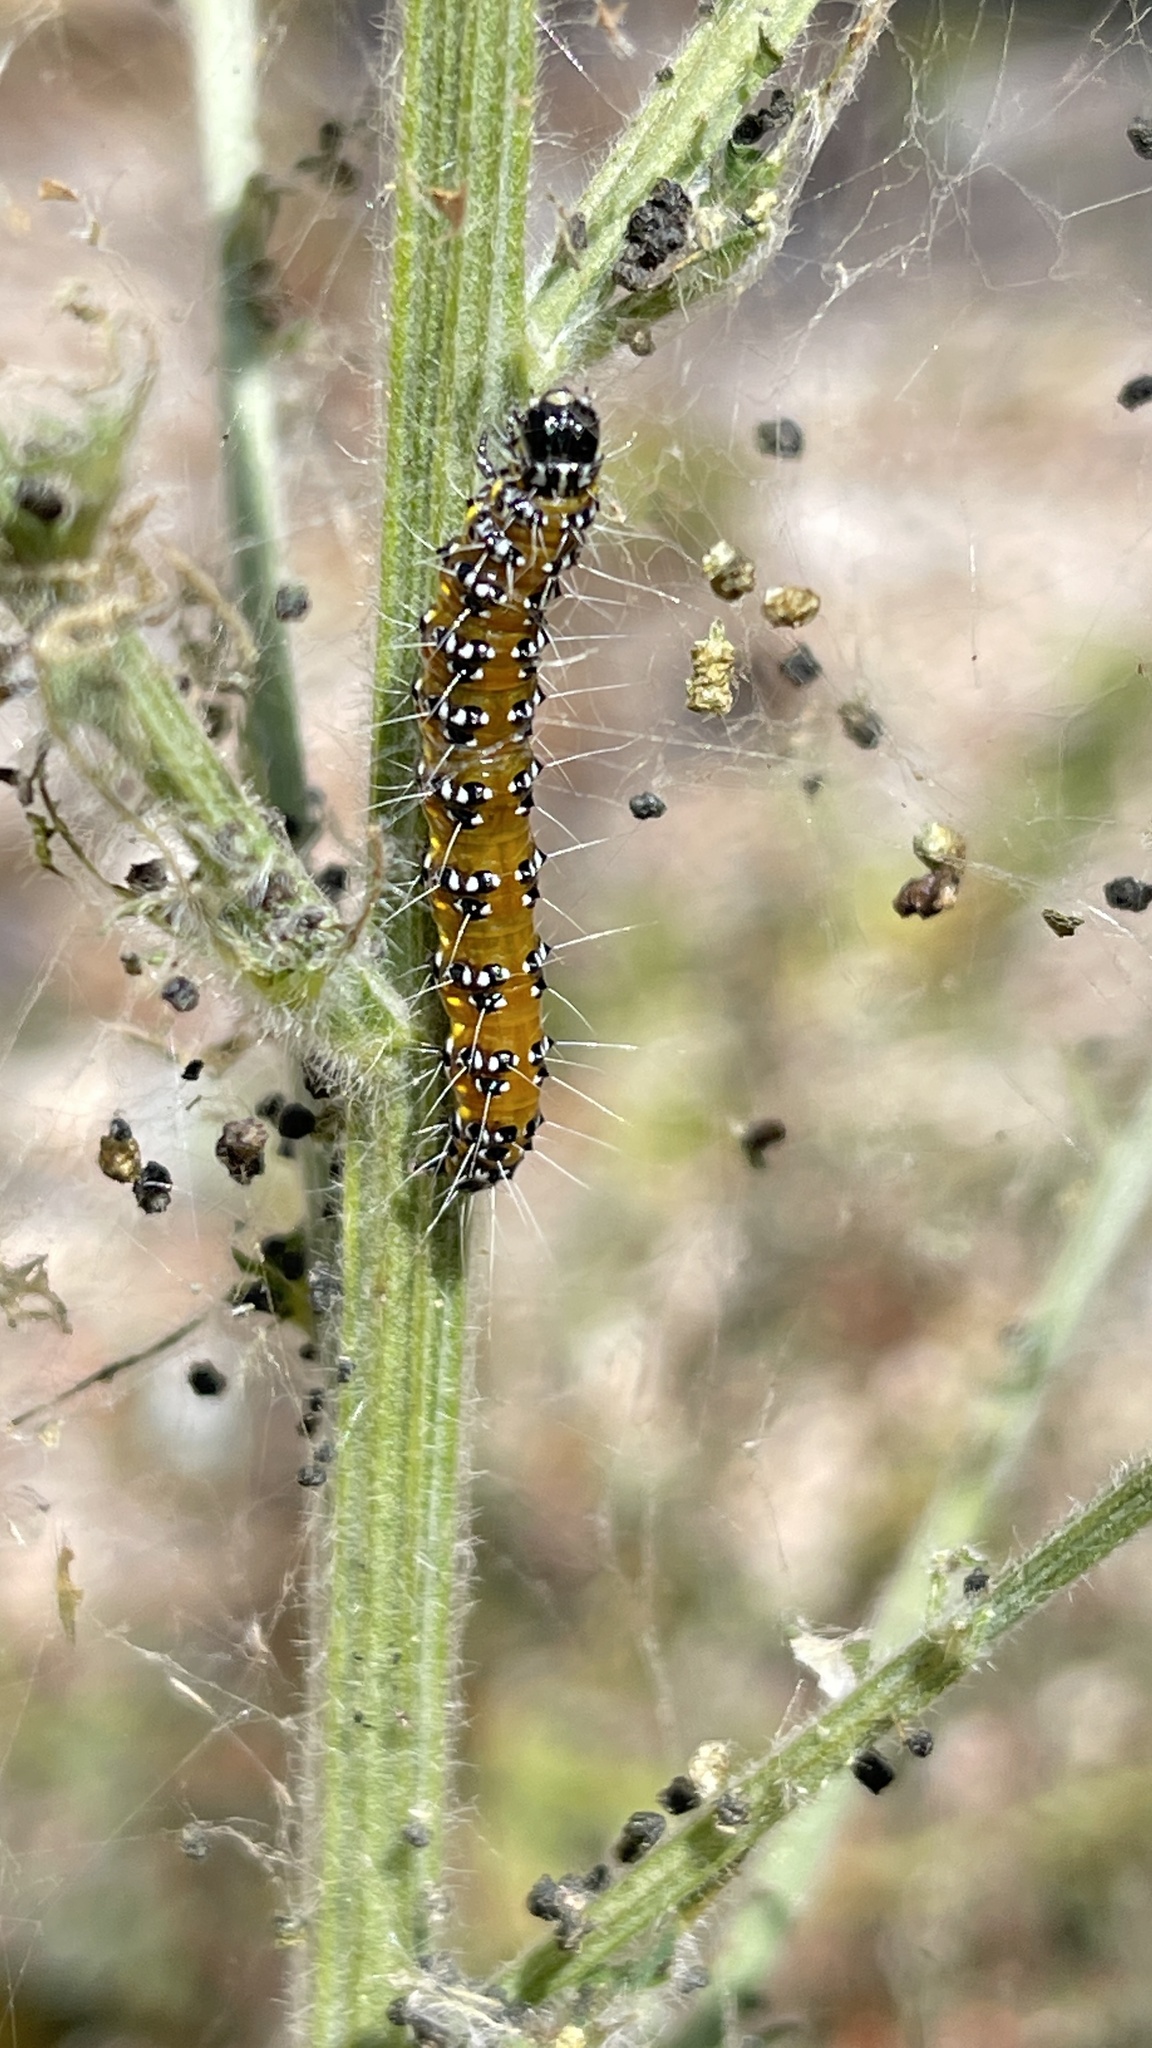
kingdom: Animalia
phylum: Arthropoda
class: Insecta
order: Lepidoptera
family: Crambidae
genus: Uresiphita
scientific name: Uresiphita reversalis
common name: Genista broom moth
